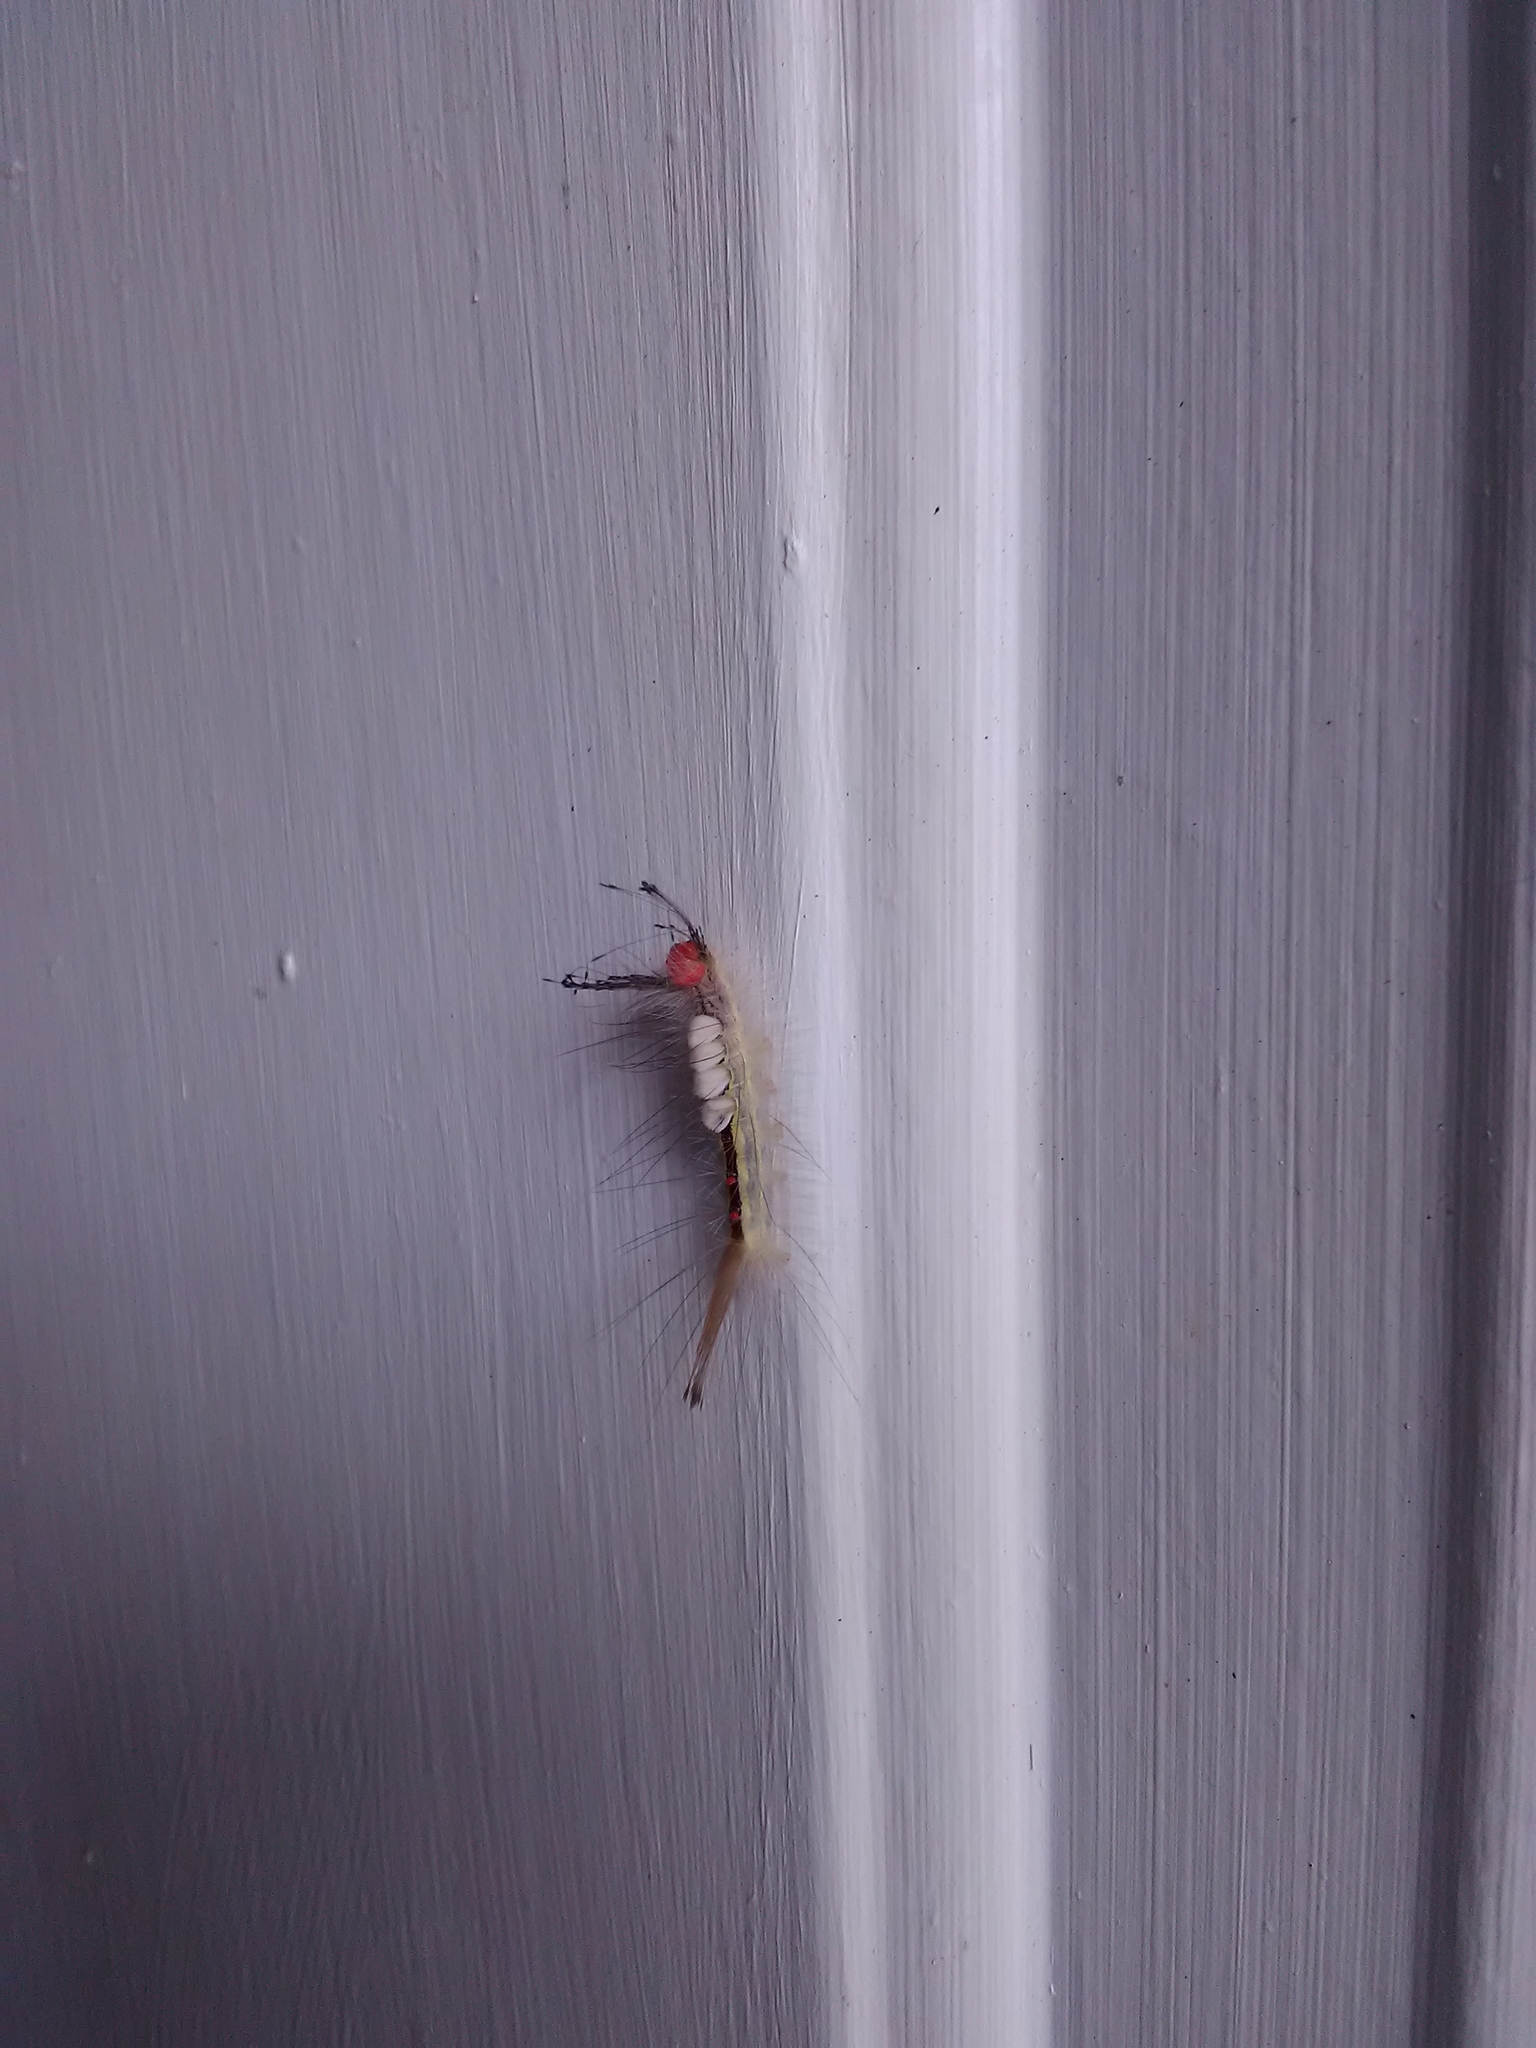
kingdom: Animalia
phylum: Arthropoda
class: Insecta
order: Lepidoptera
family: Erebidae
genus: Orgyia
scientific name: Orgyia leucostigma
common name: White-marked tussock moth
